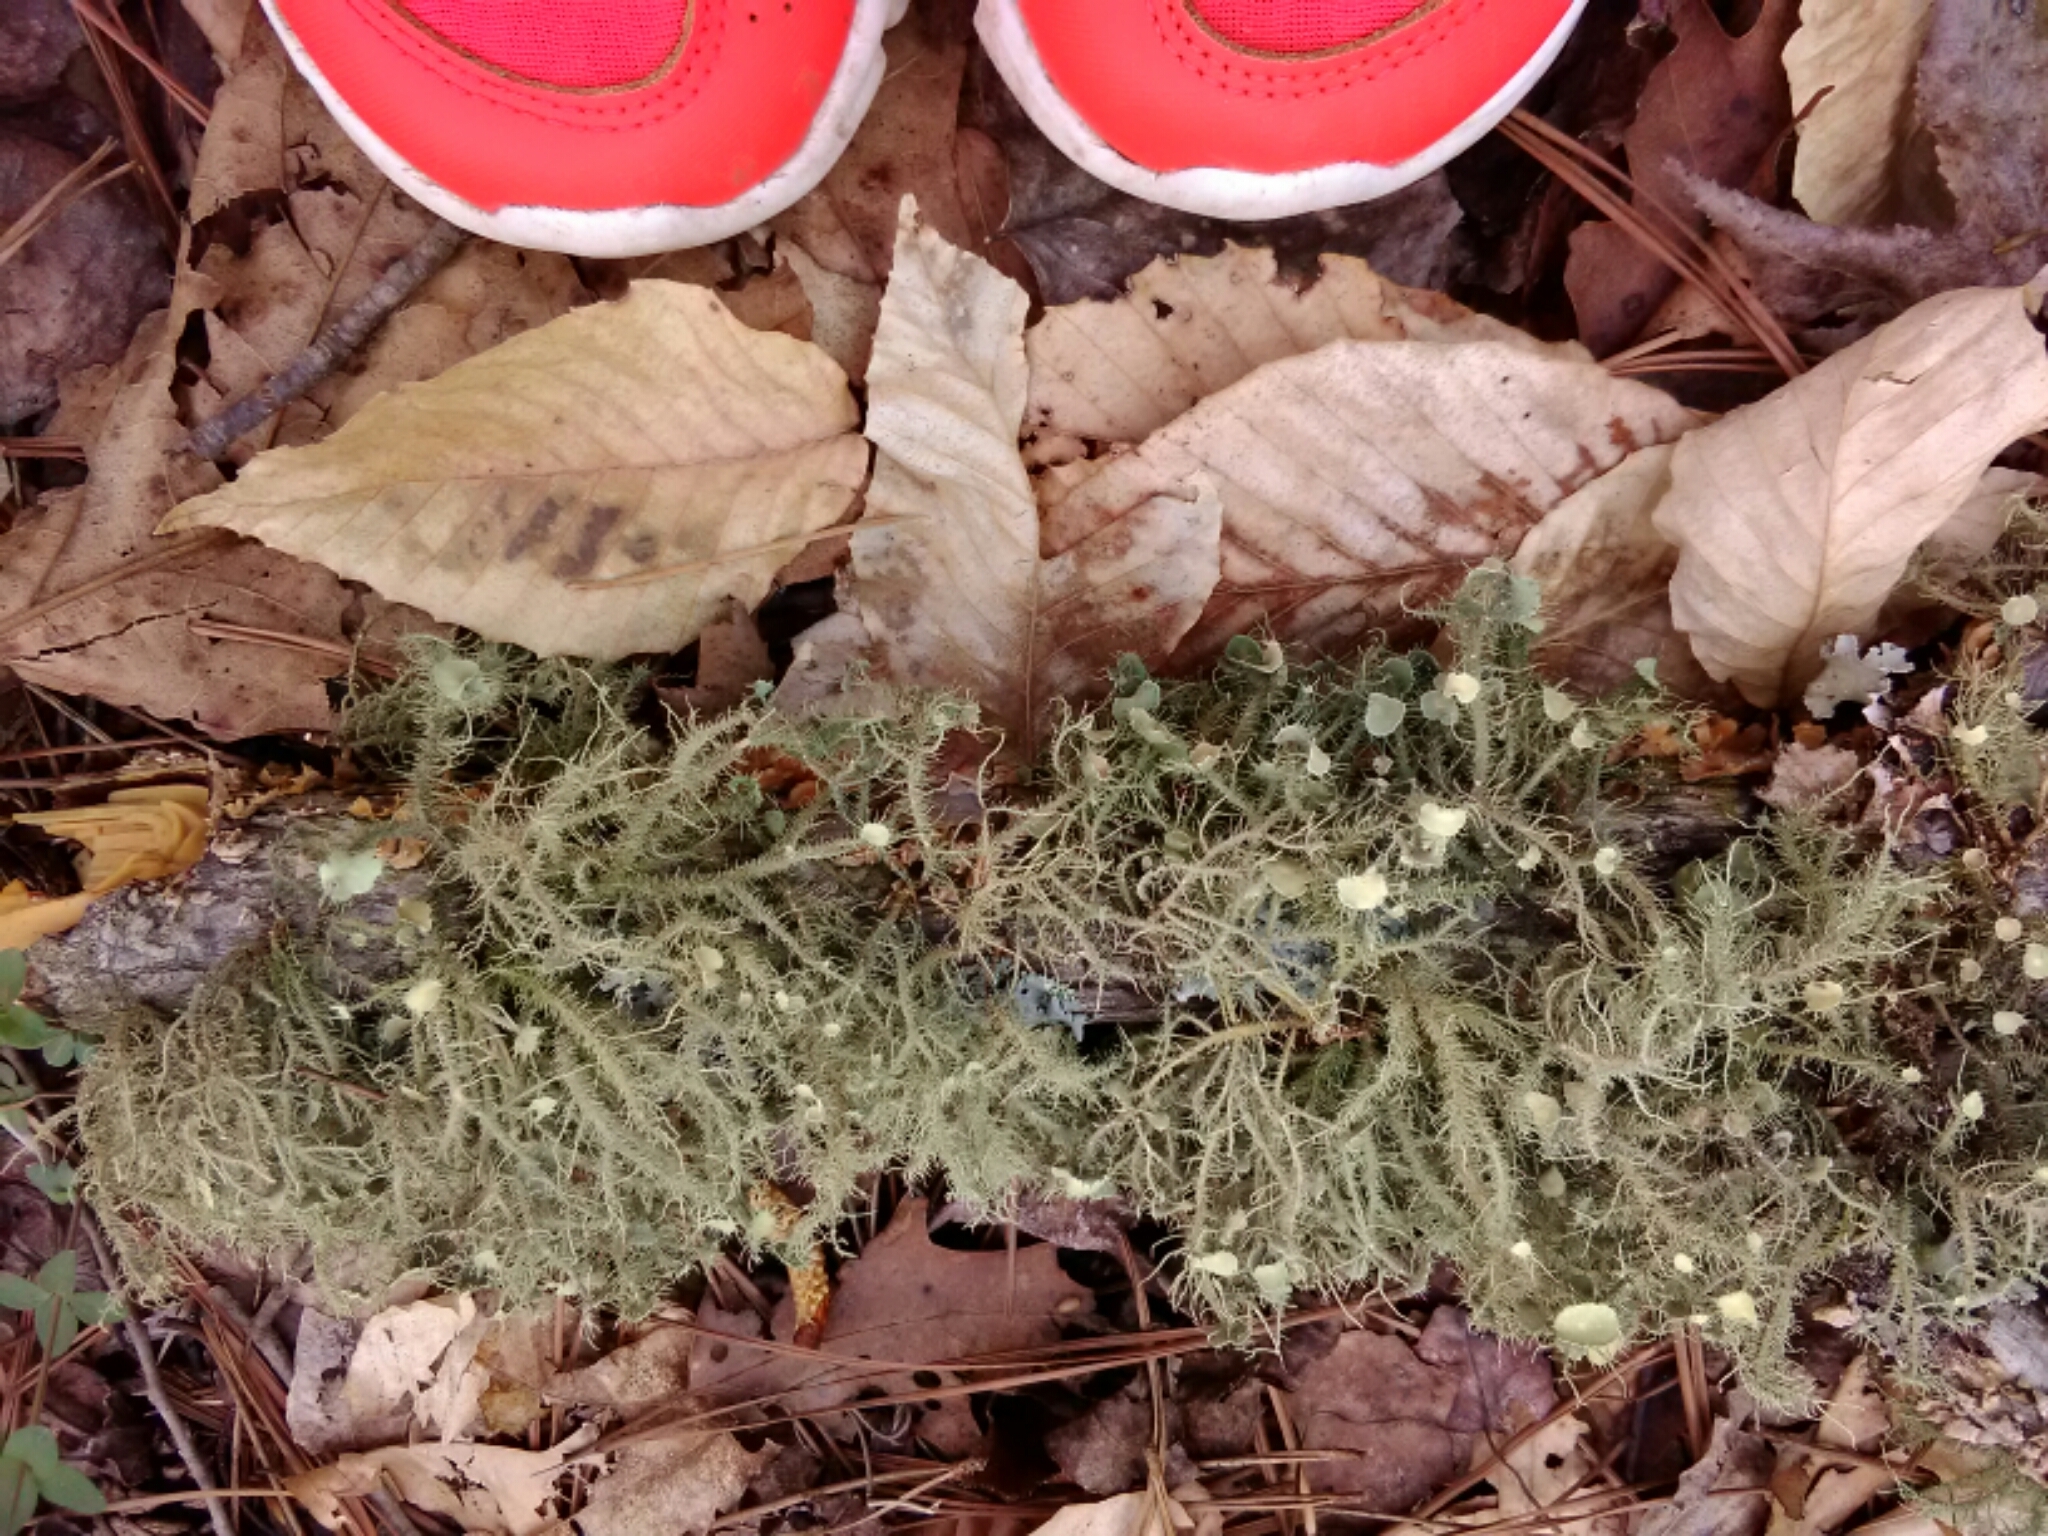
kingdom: Fungi
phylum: Ascomycota
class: Lecanoromycetes
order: Lecanorales
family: Parmeliaceae
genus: Usnea
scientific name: Usnea strigosa
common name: Bushy beard lichen
